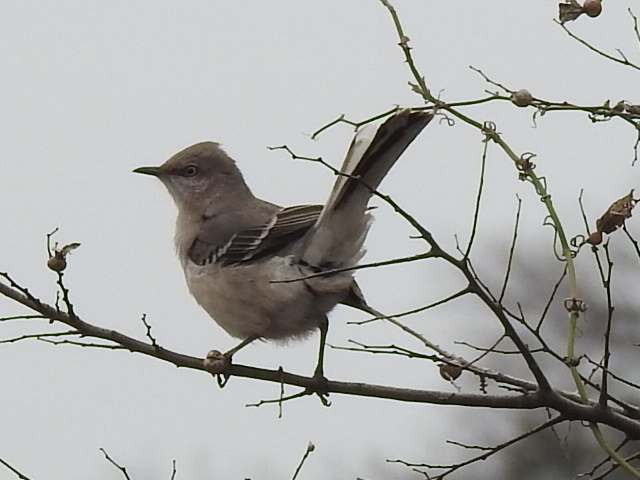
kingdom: Animalia
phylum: Chordata
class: Aves
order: Passeriformes
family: Mimidae
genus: Mimus
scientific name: Mimus polyglottos
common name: Northern mockingbird
